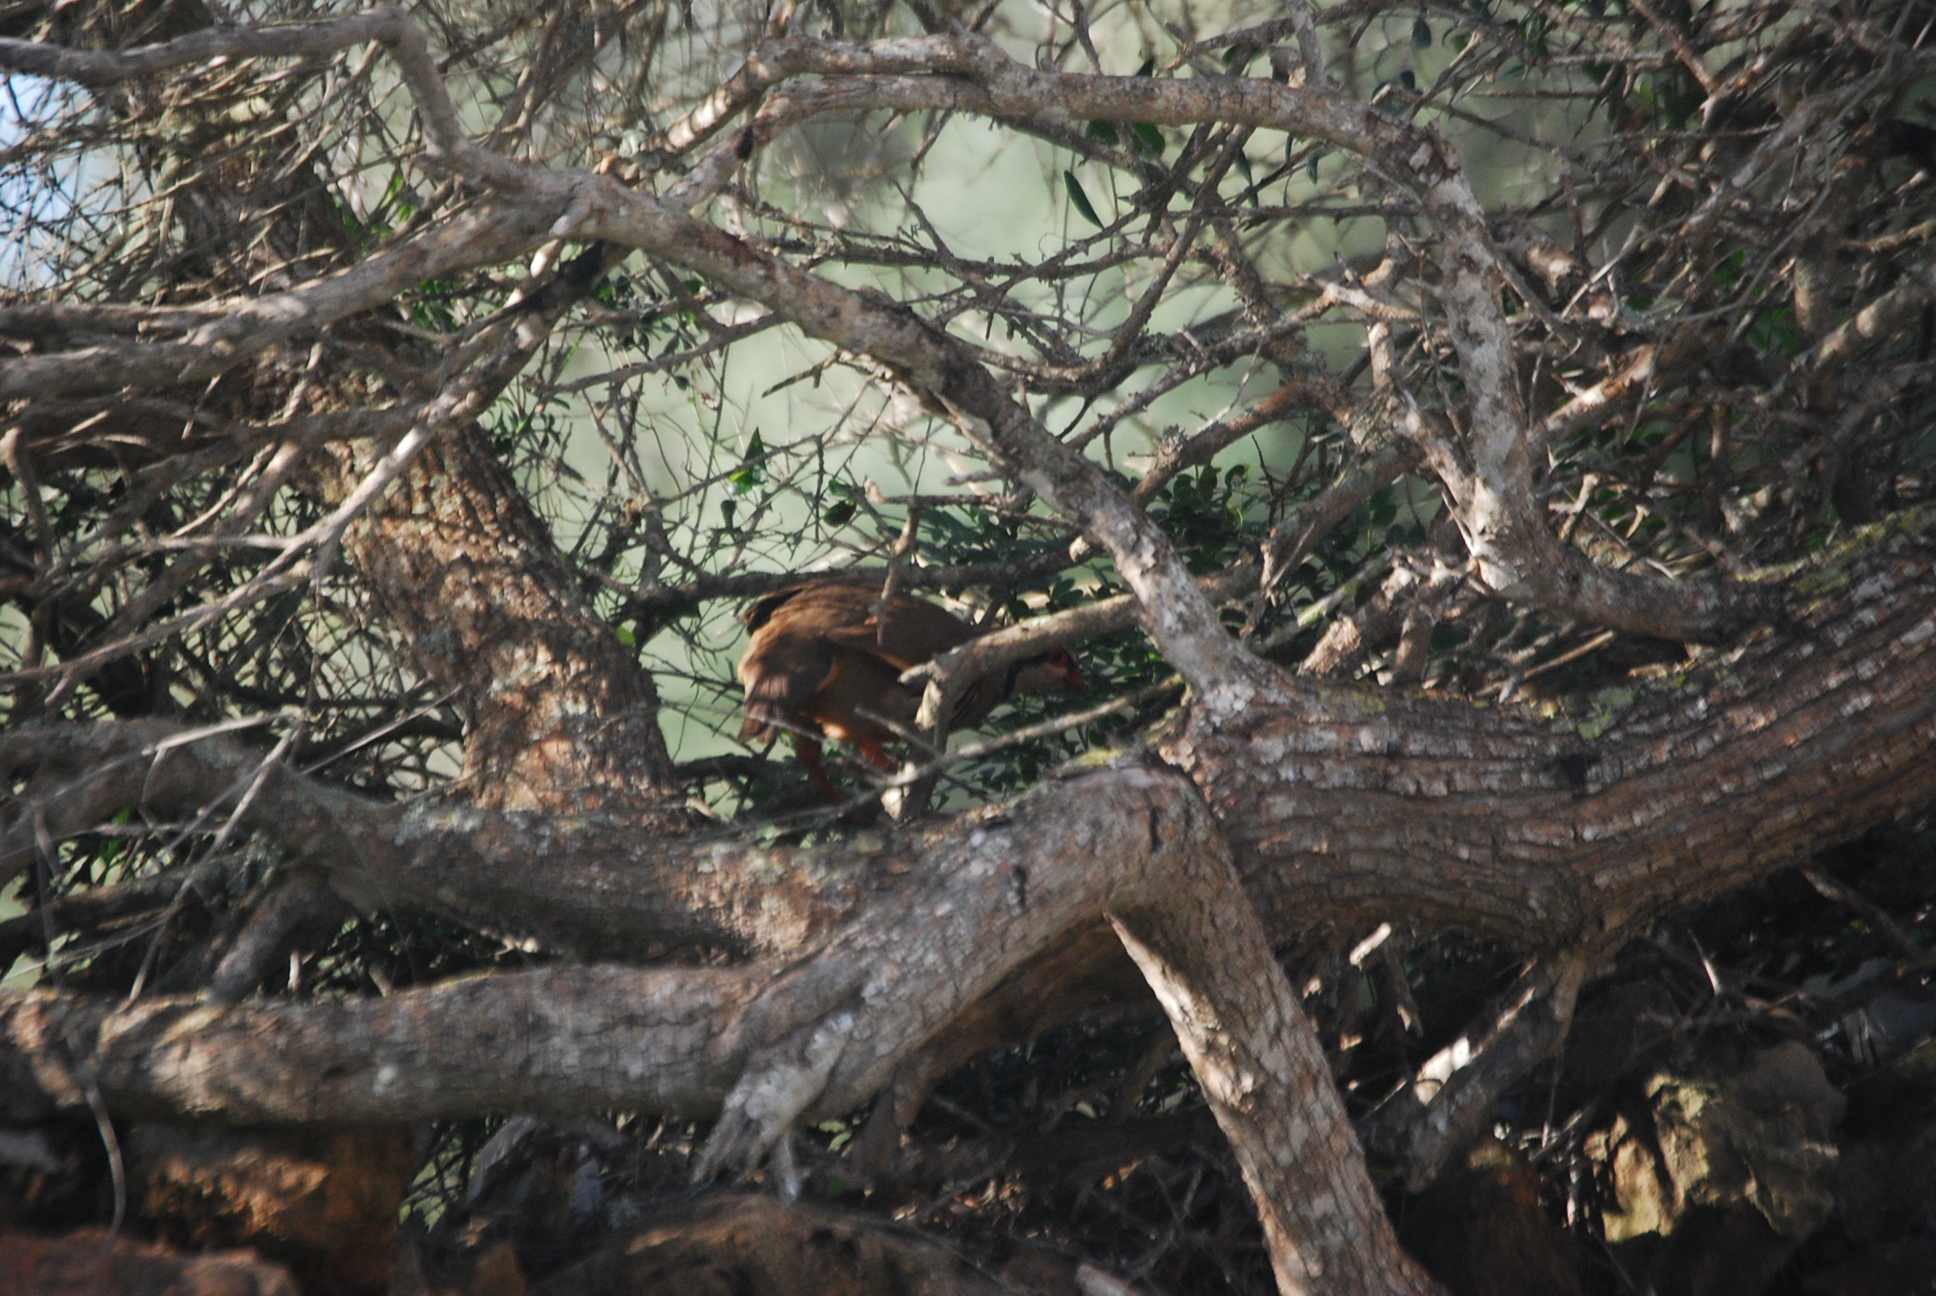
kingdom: Animalia
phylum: Chordata
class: Aves
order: Galliformes
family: Phasianidae
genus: Alectoris
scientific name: Alectoris rufa
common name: Red-legged partridge
